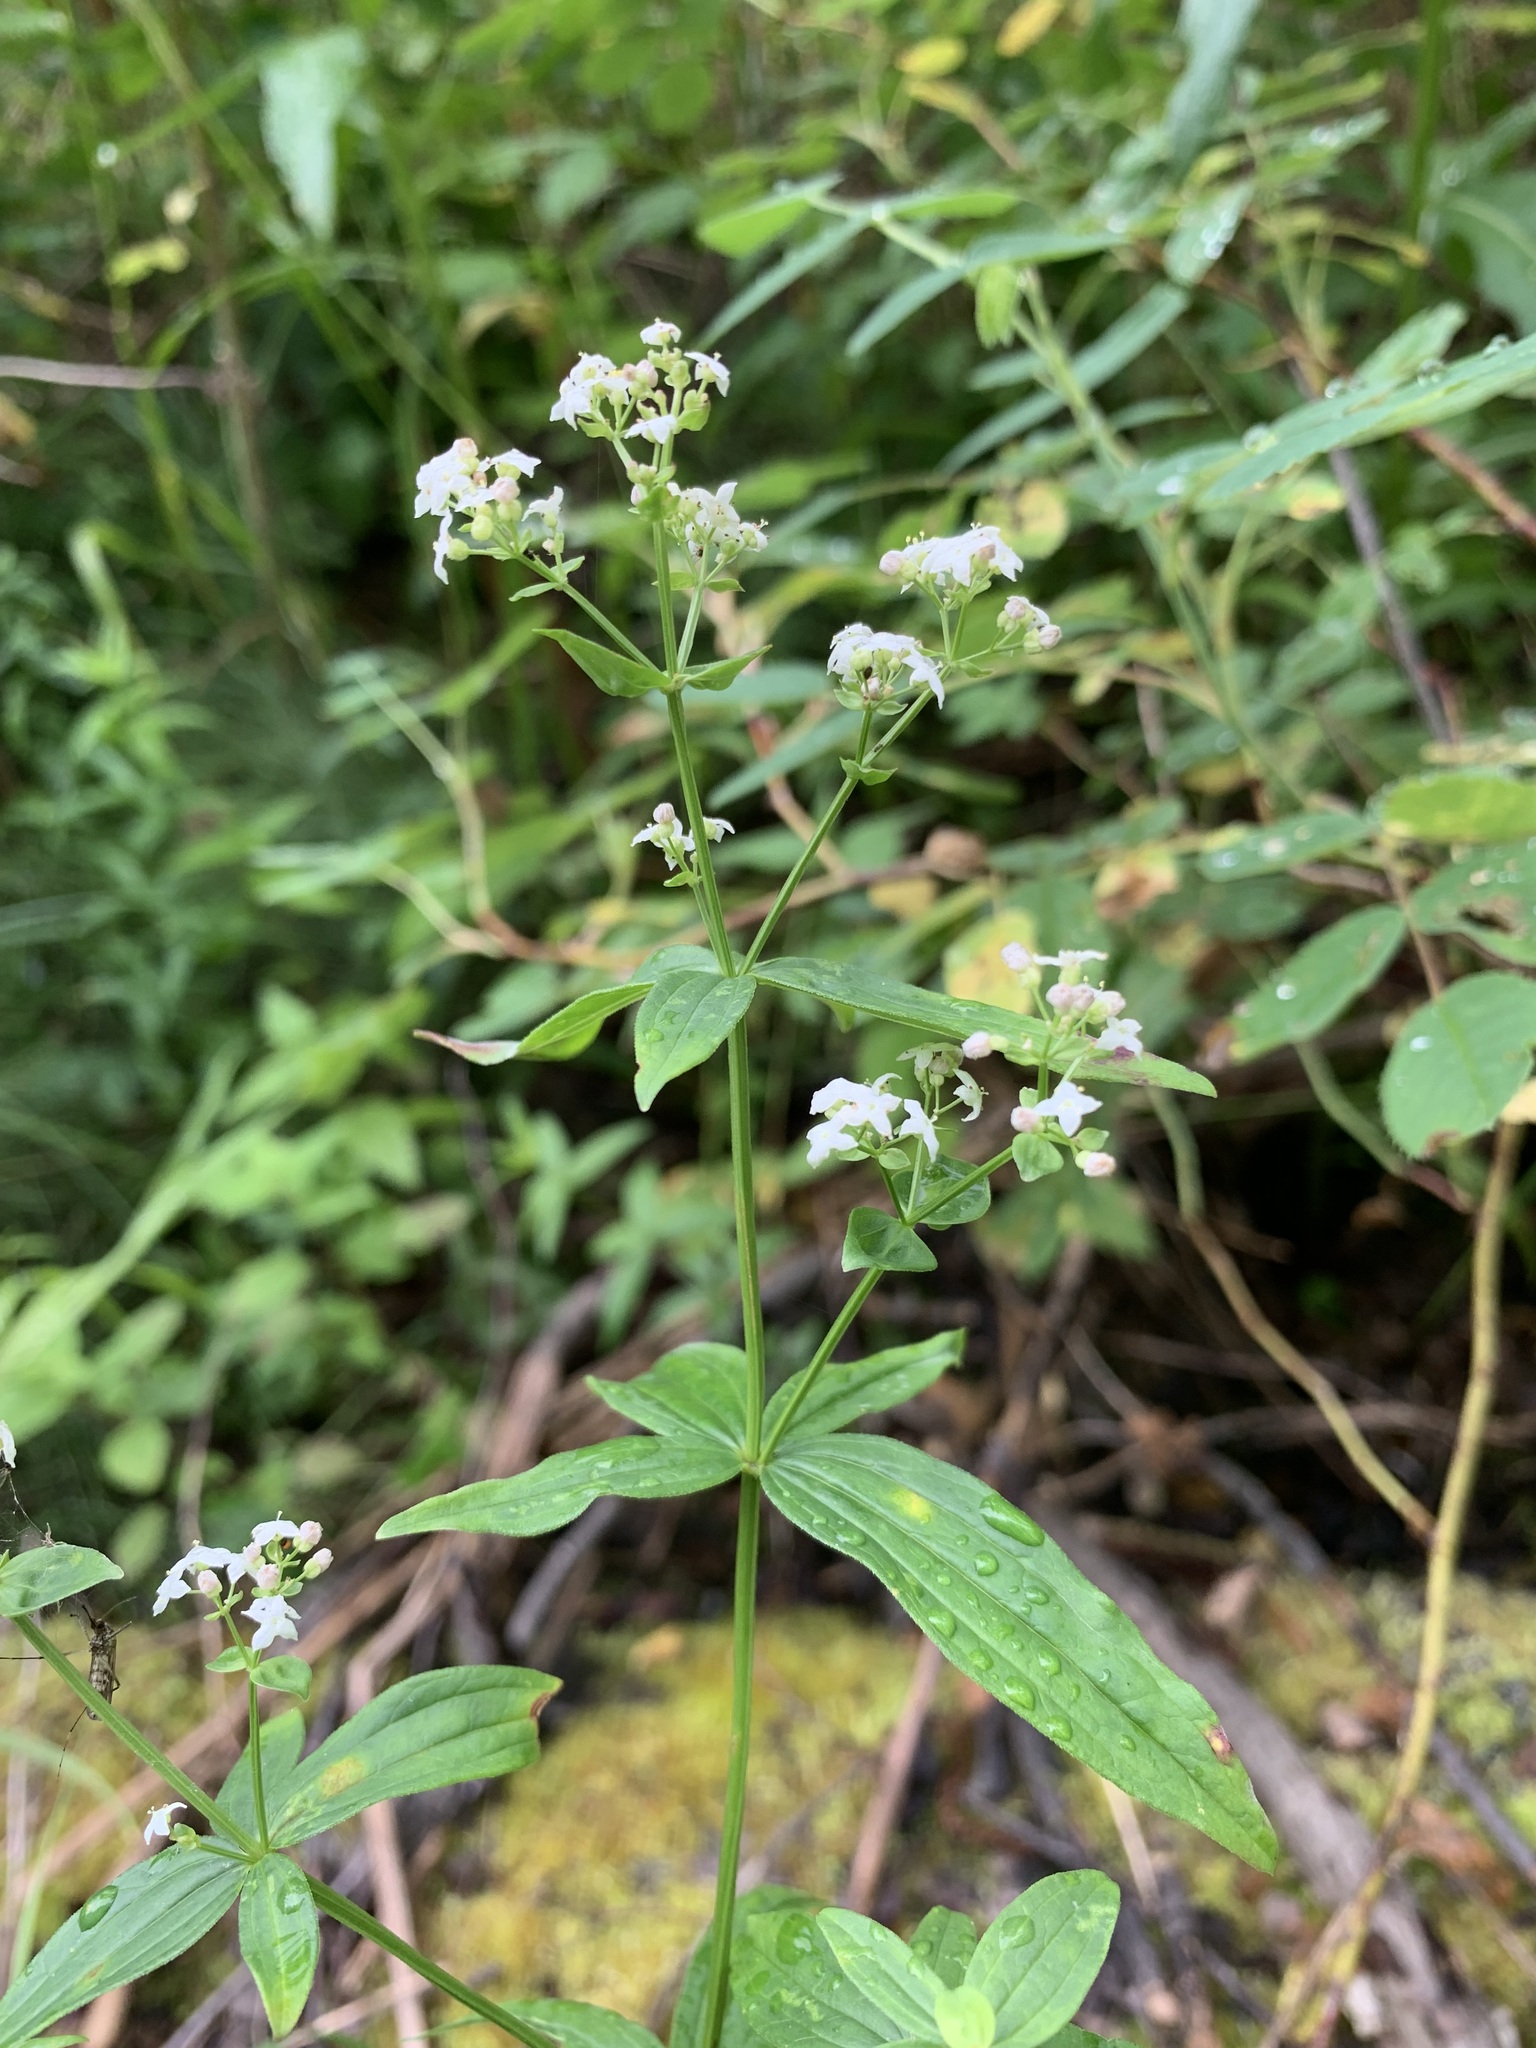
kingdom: Plantae
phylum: Tracheophyta
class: Magnoliopsida
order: Gentianales
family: Rubiaceae
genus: Galium
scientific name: Galium rubioides
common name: European bedstraw
